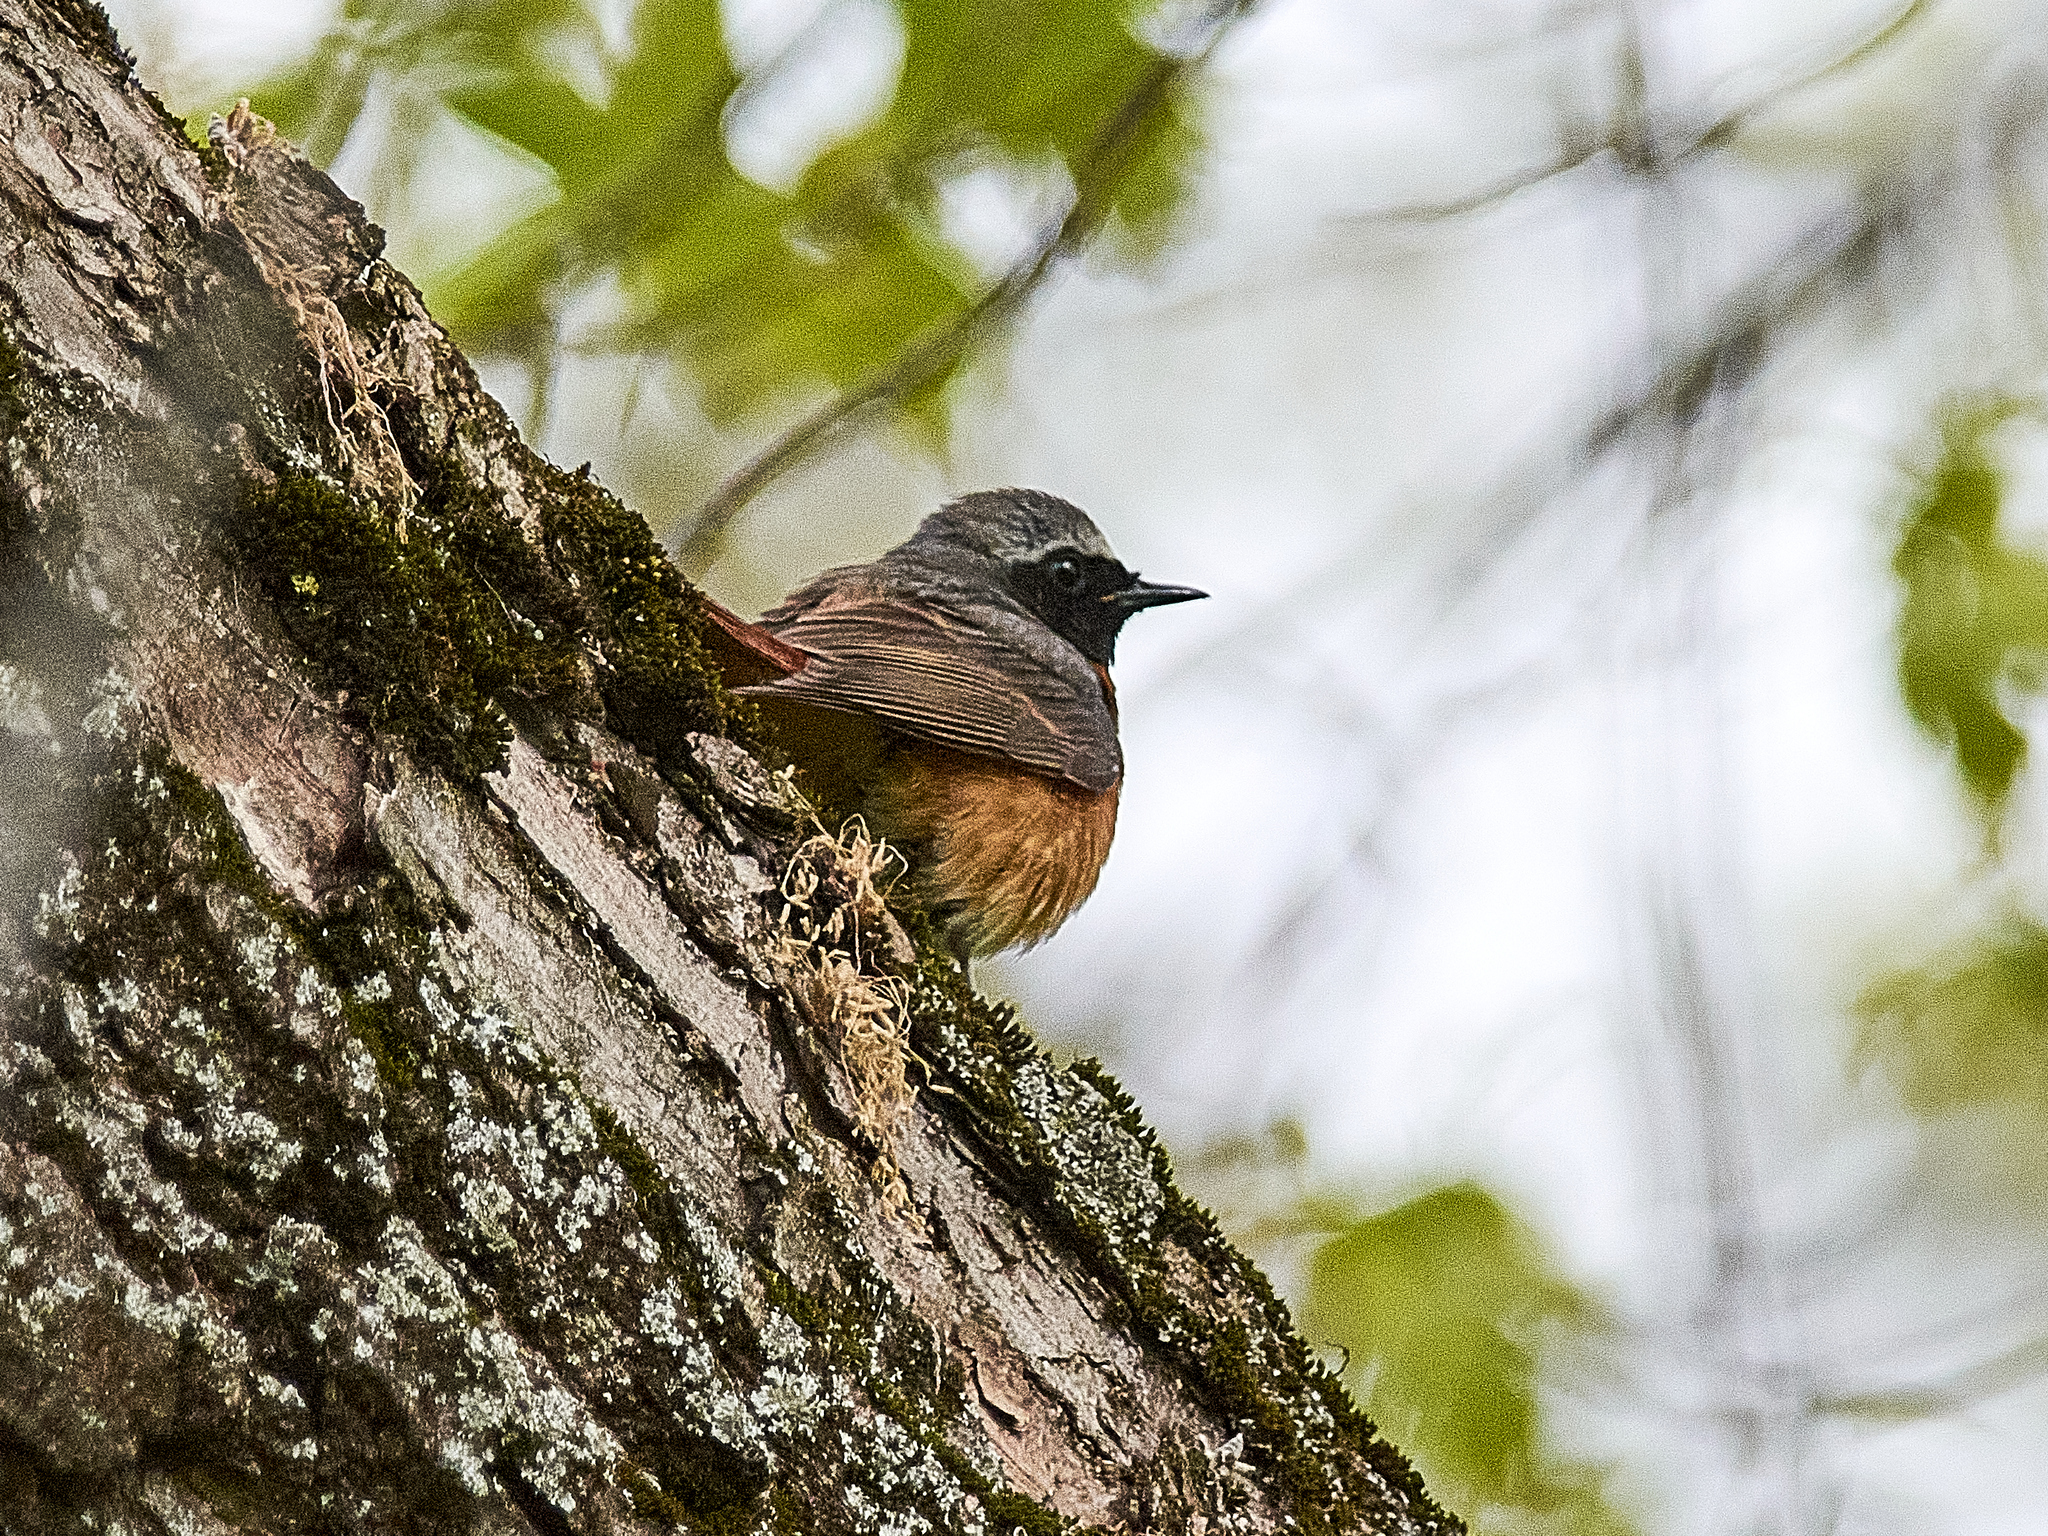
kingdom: Animalia
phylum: Chordata
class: Aves
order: Passeriformes
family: Muscicapidae
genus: Phoenicurus
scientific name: Phoenicurus phoenicurus
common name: Common redstart
